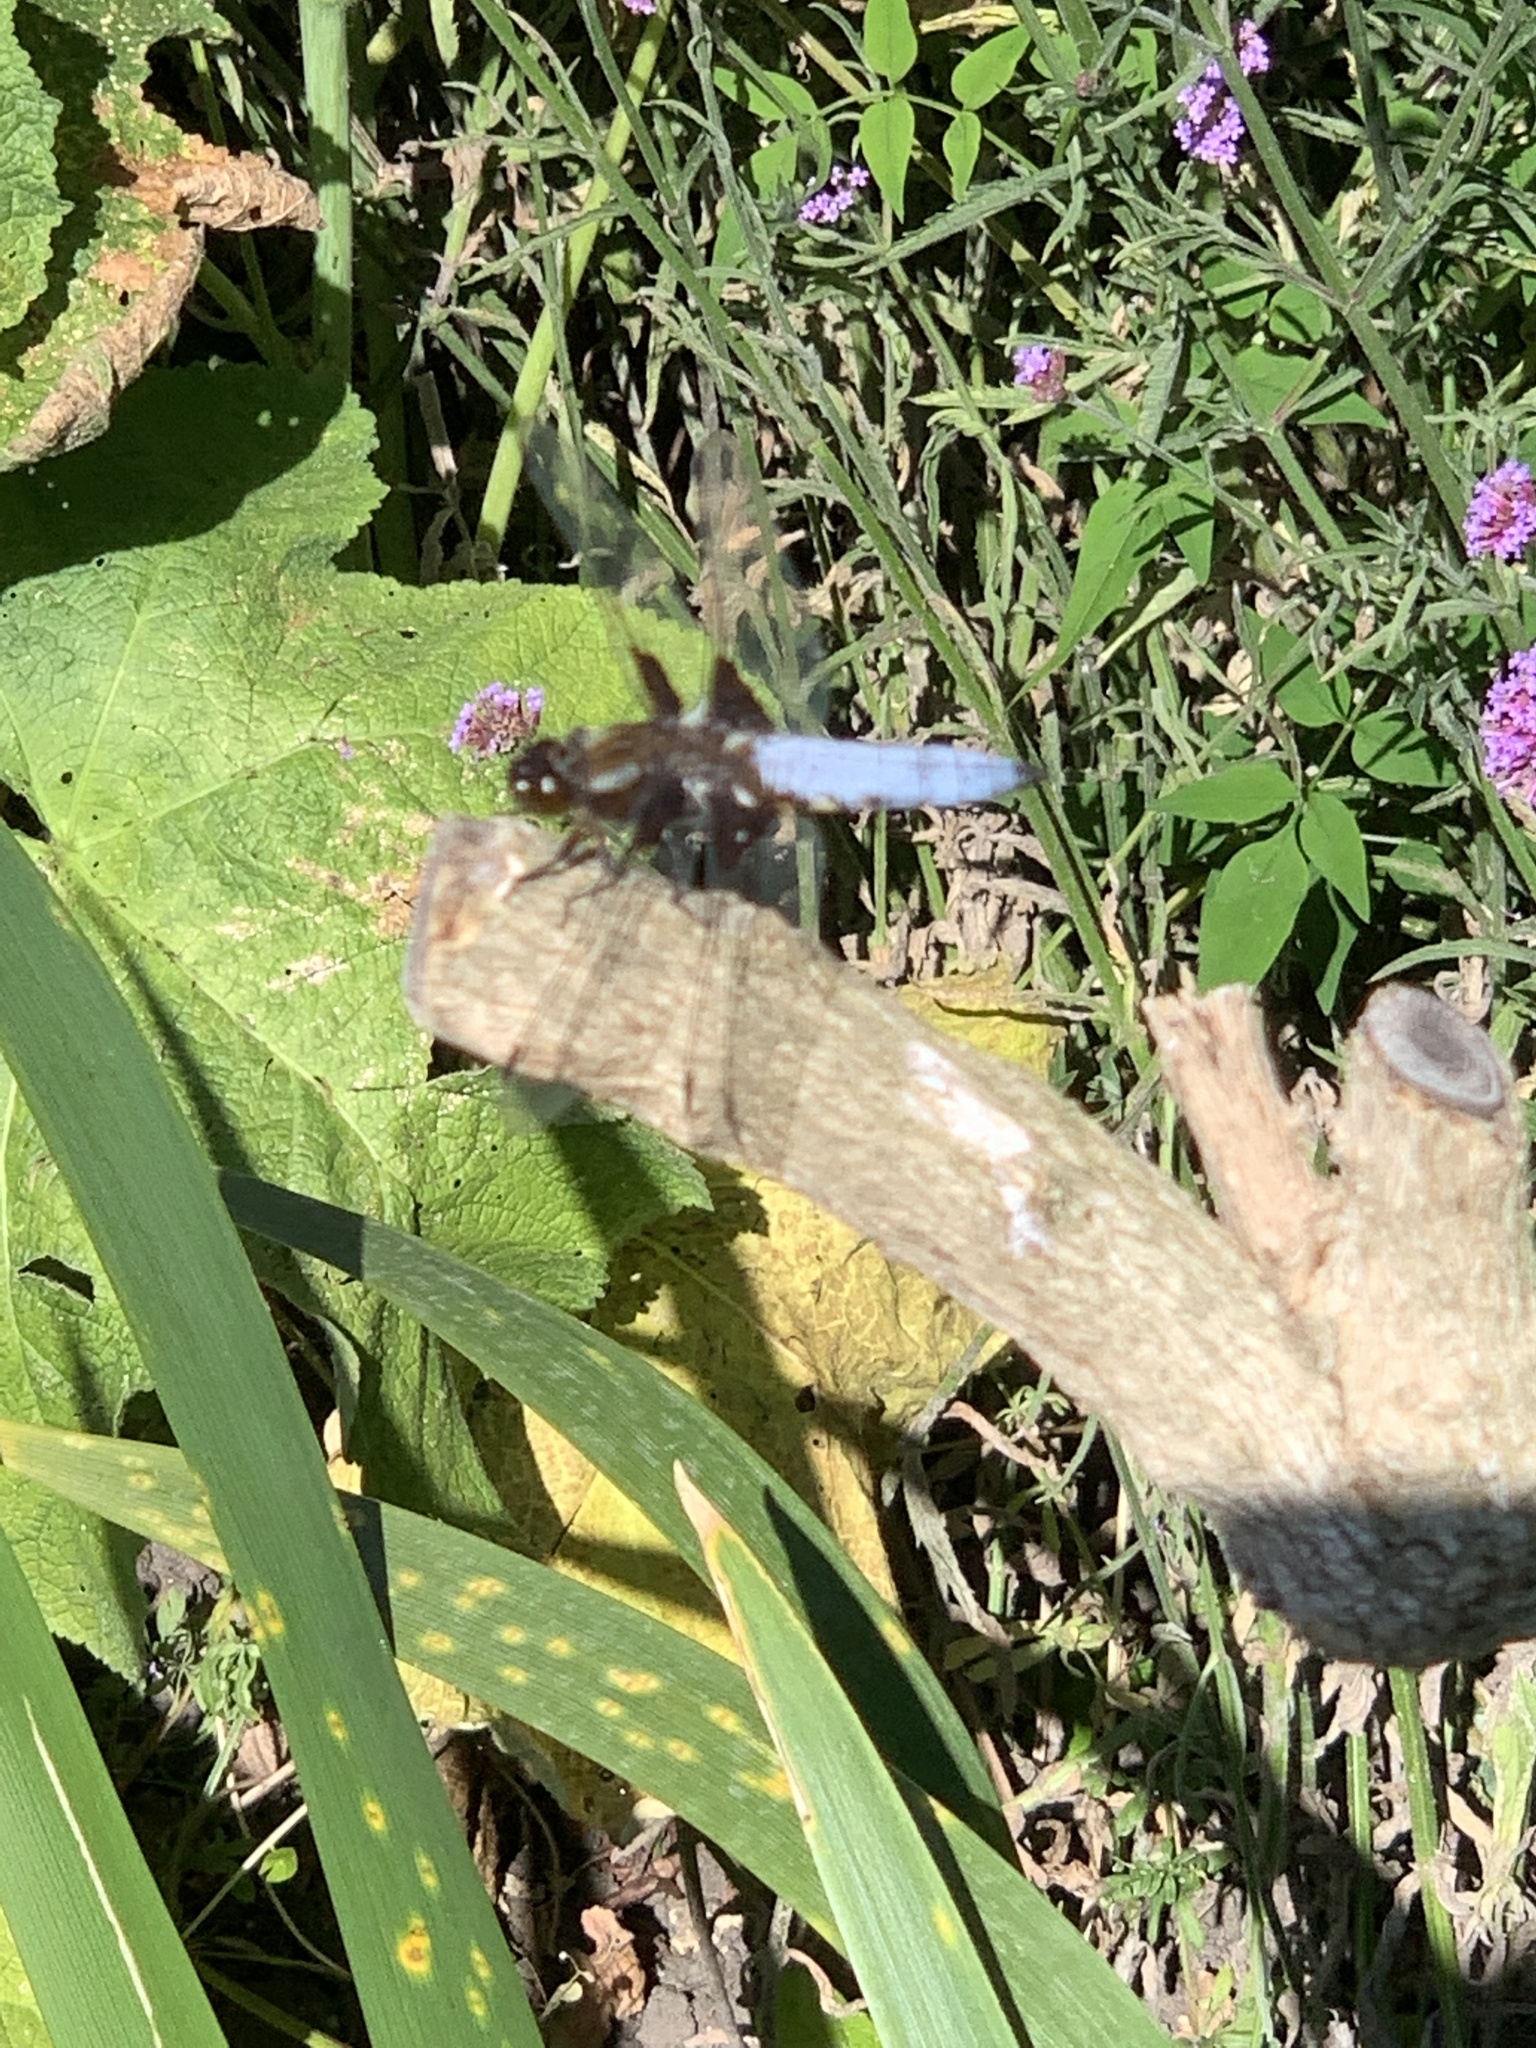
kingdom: Animalia
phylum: Arthropoda
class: Insecta
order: Odonata
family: Libellulidae
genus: Libellula
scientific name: Libellula depressa
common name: Broad-bodied chaser
